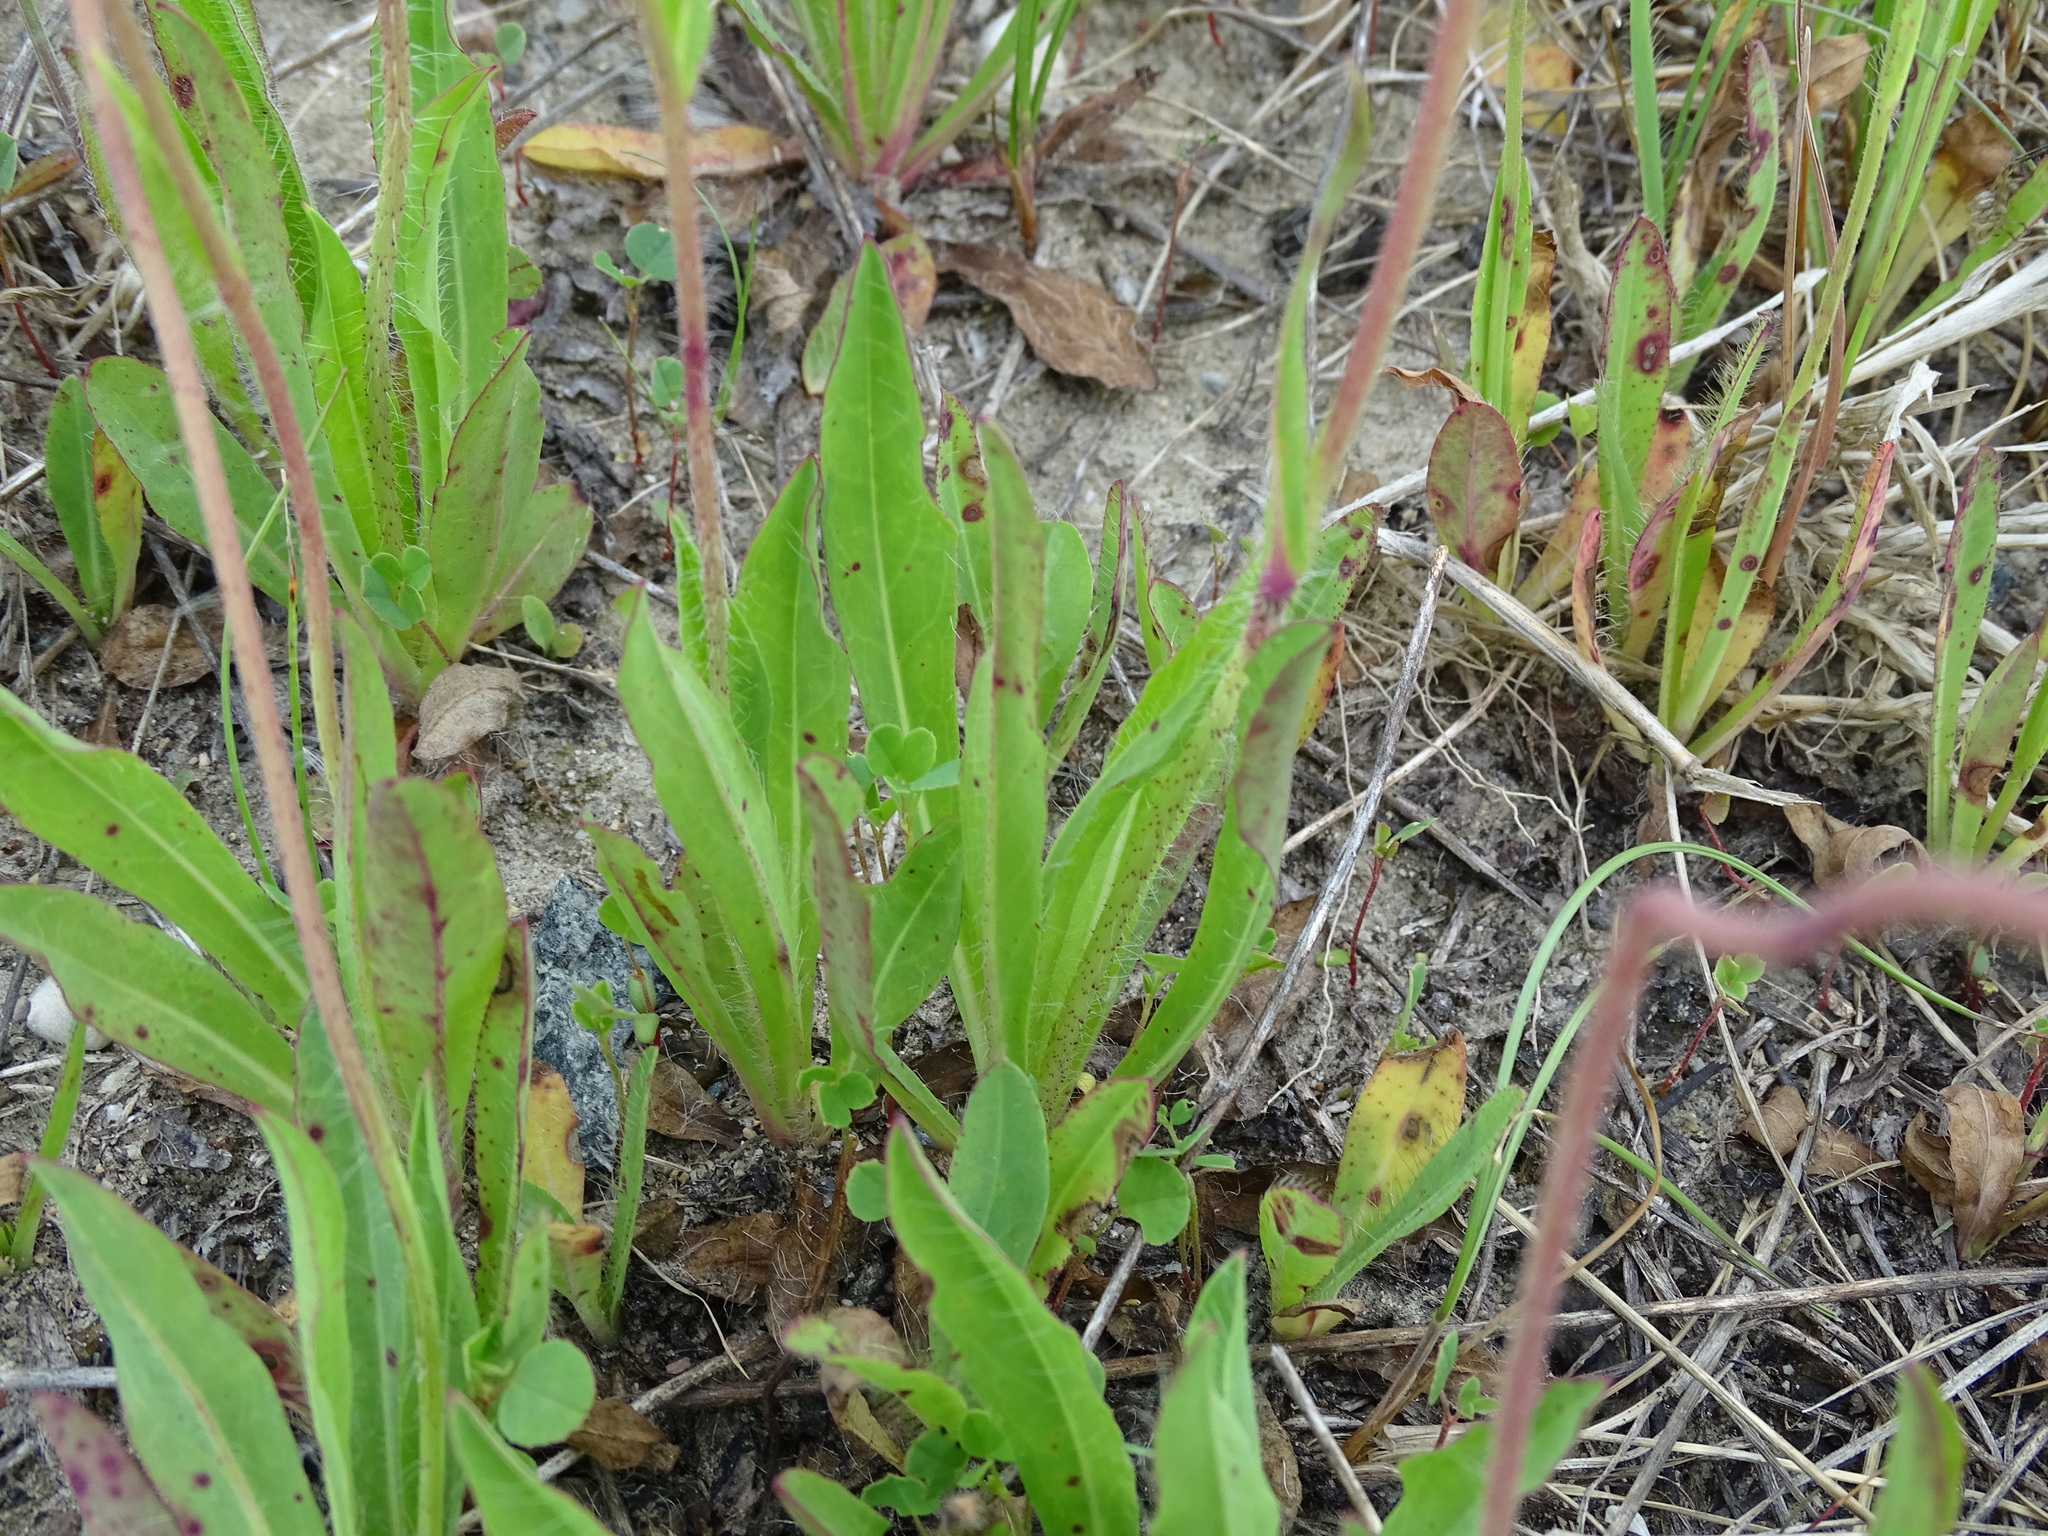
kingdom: Plantae
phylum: Tracheophyta
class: Magnoliopsida
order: Asterales
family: Asteraceae
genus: Pilosella
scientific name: Pilosella piloselloides
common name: Glaucous king-devil
